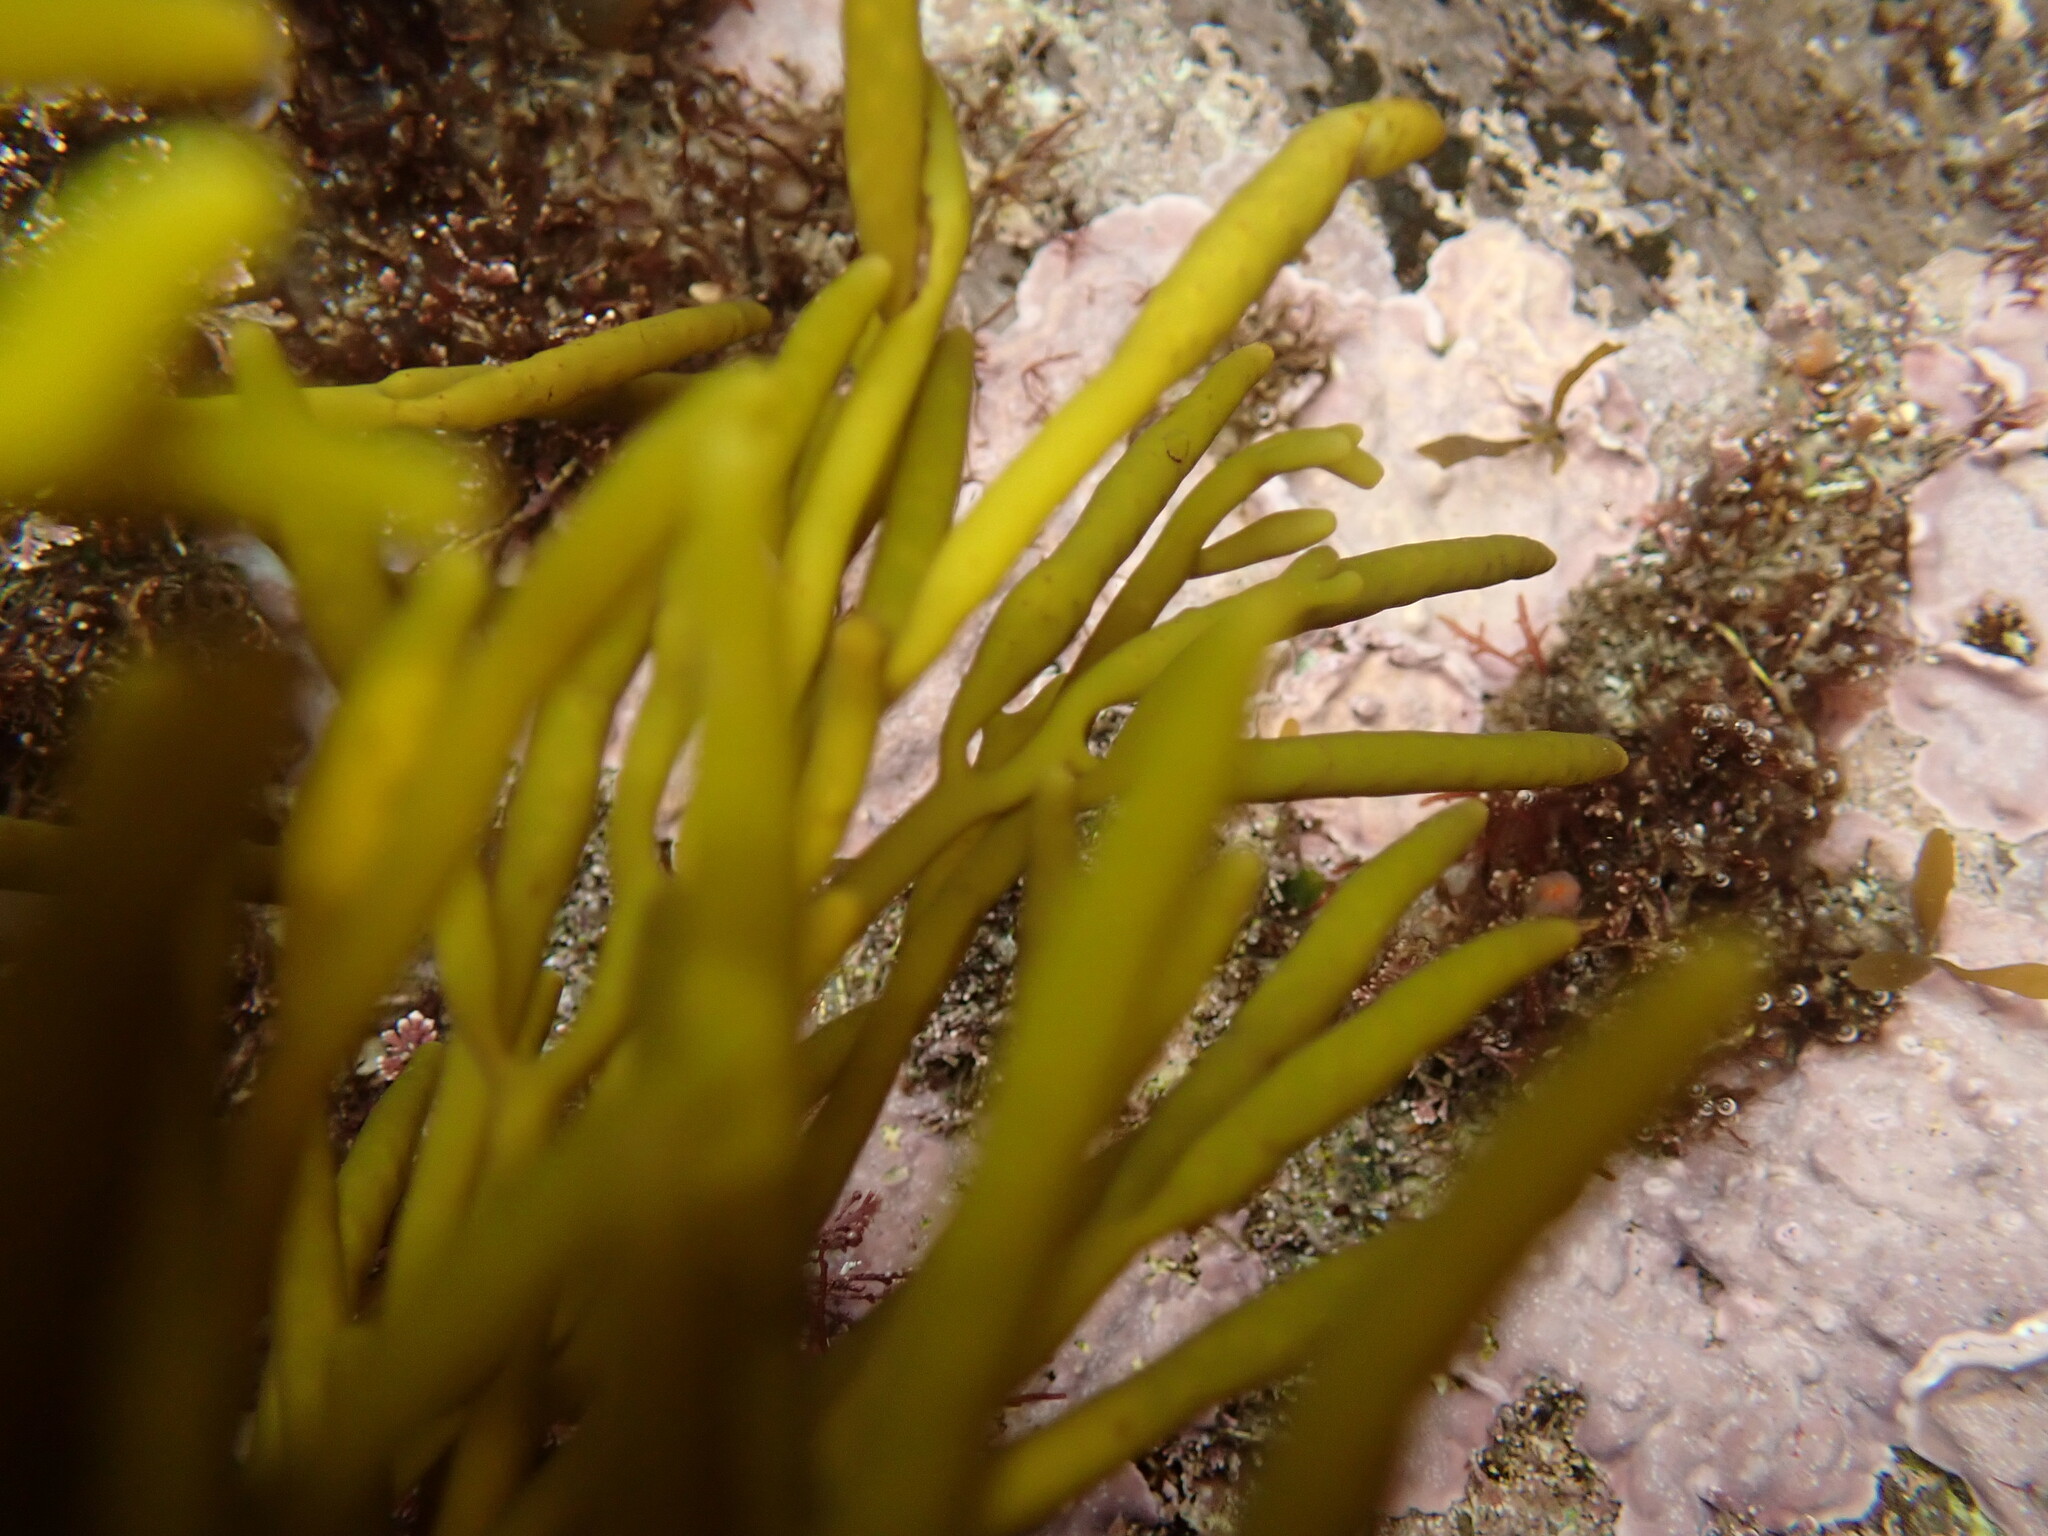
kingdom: Chromista
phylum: Ochrophyta
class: Phaeophyceae
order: Fucales
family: Sargassaceae
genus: Bifurcaria
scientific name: Bifurcaria bifurcata
